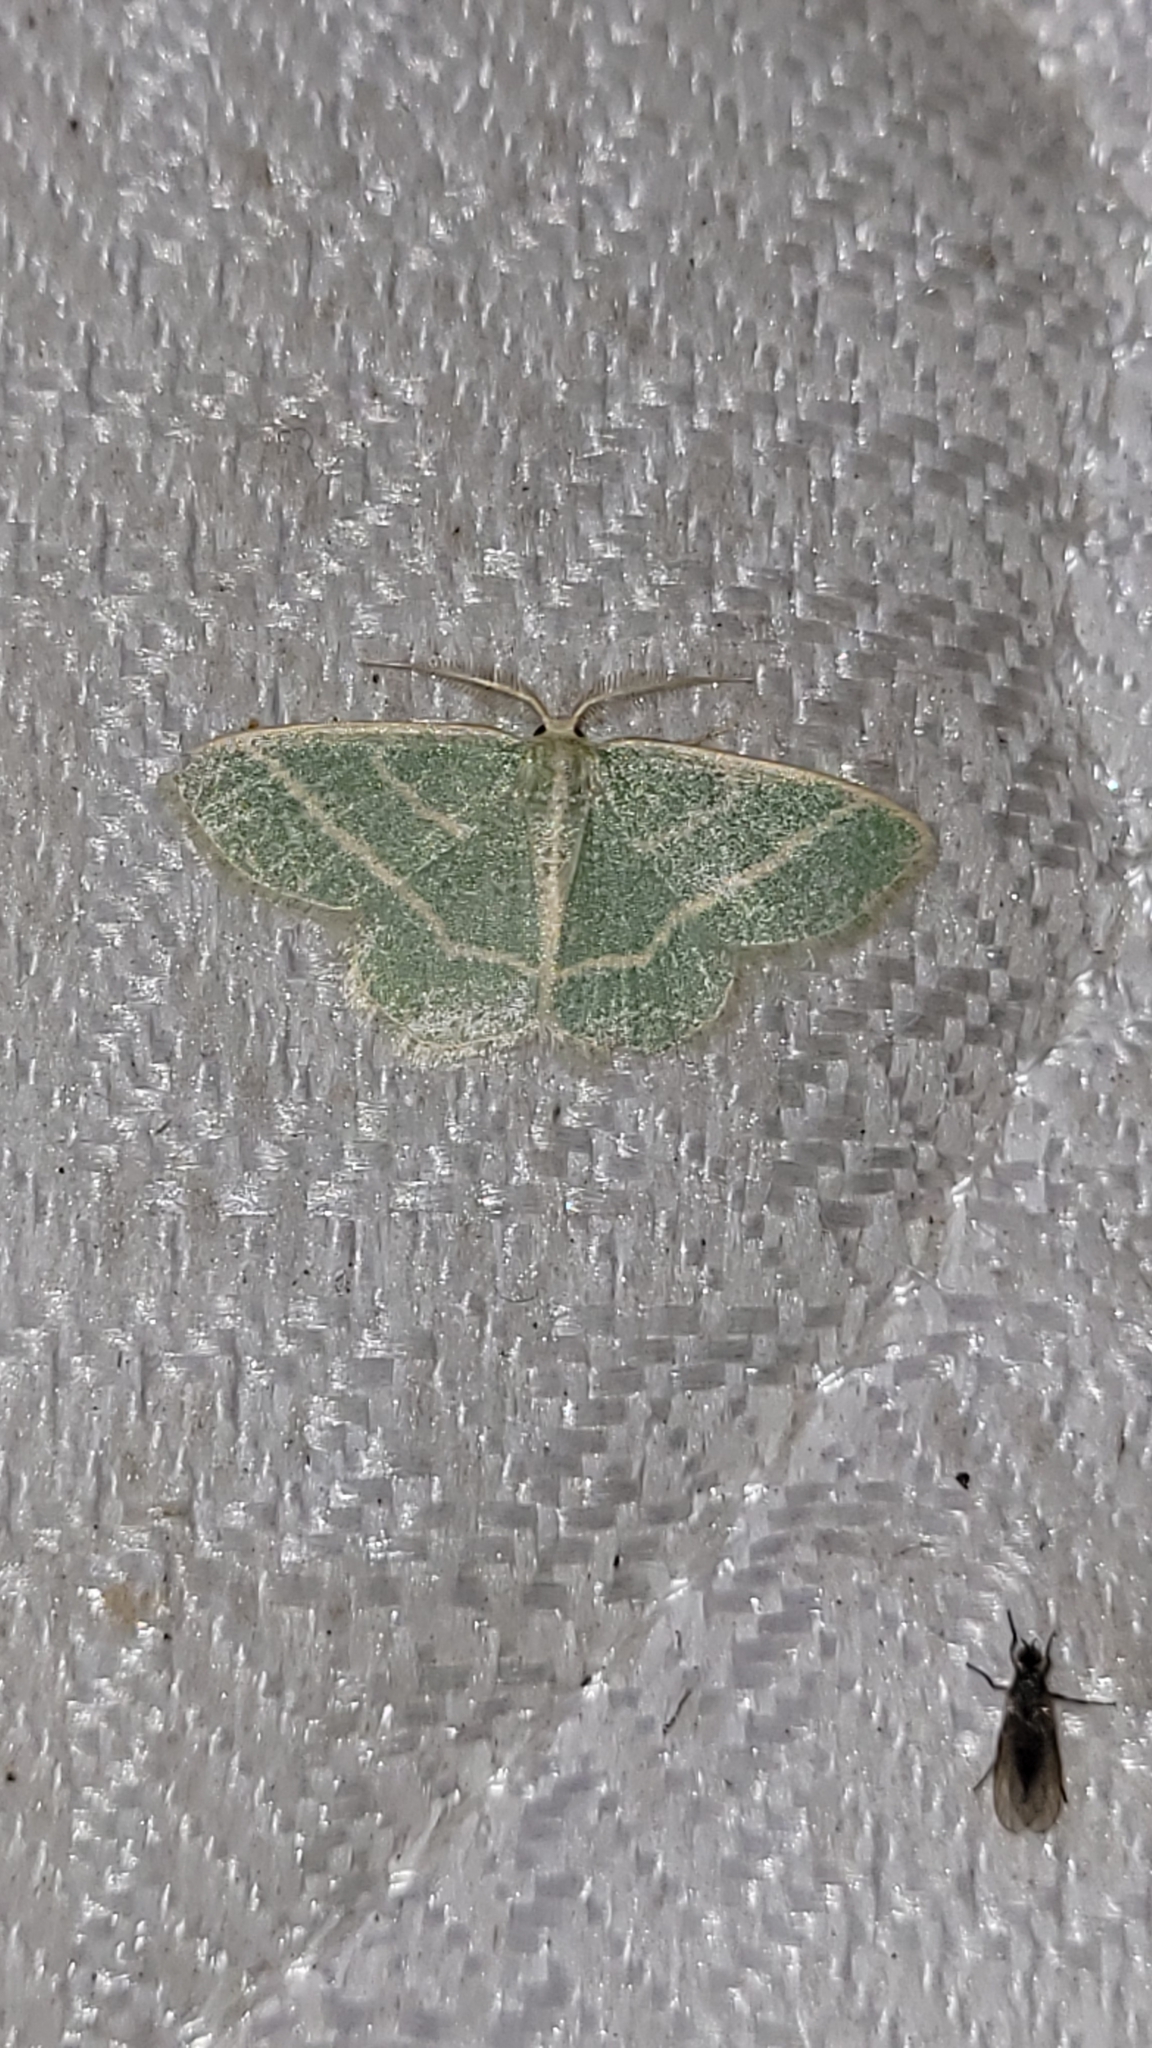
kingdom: Animalia
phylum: Arthropoda
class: Insecta
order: Lepidoptera
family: Geometridae
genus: Chlorochlamys
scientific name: Chlorochlamys chloroleucaria
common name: Blackberry looper
